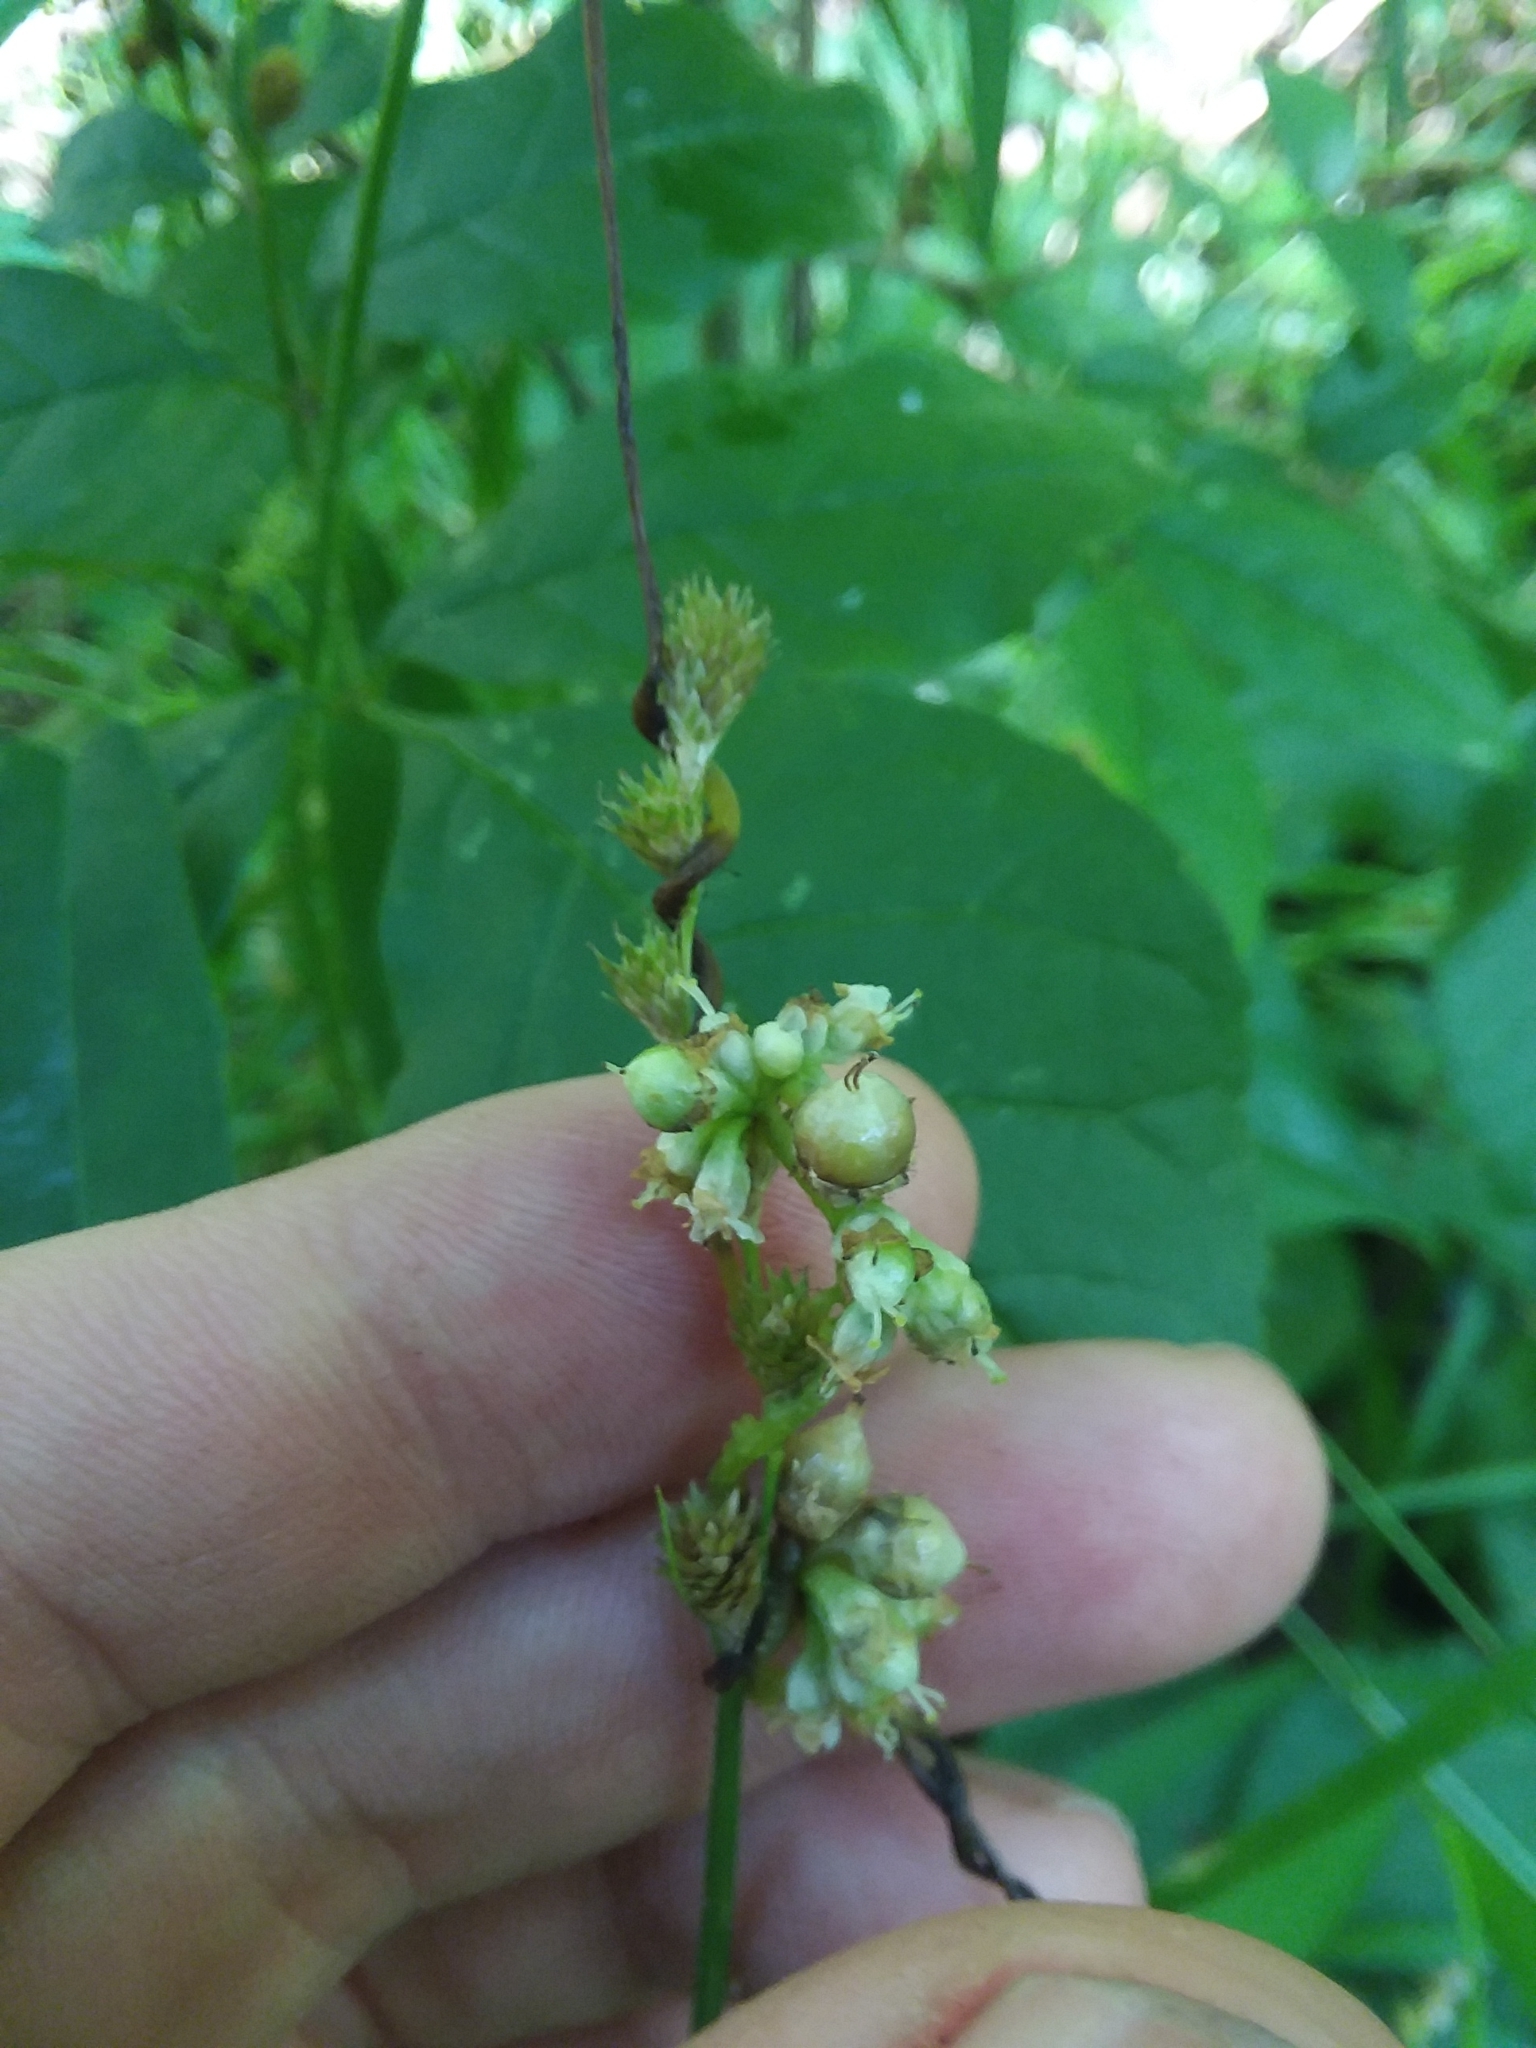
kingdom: Plantae
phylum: Tracheophyta
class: Magnoliopsida
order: Solanales
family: Convolvulaceae
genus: Cuscuta
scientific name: Cuscuta gronovii
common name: Common dodder
